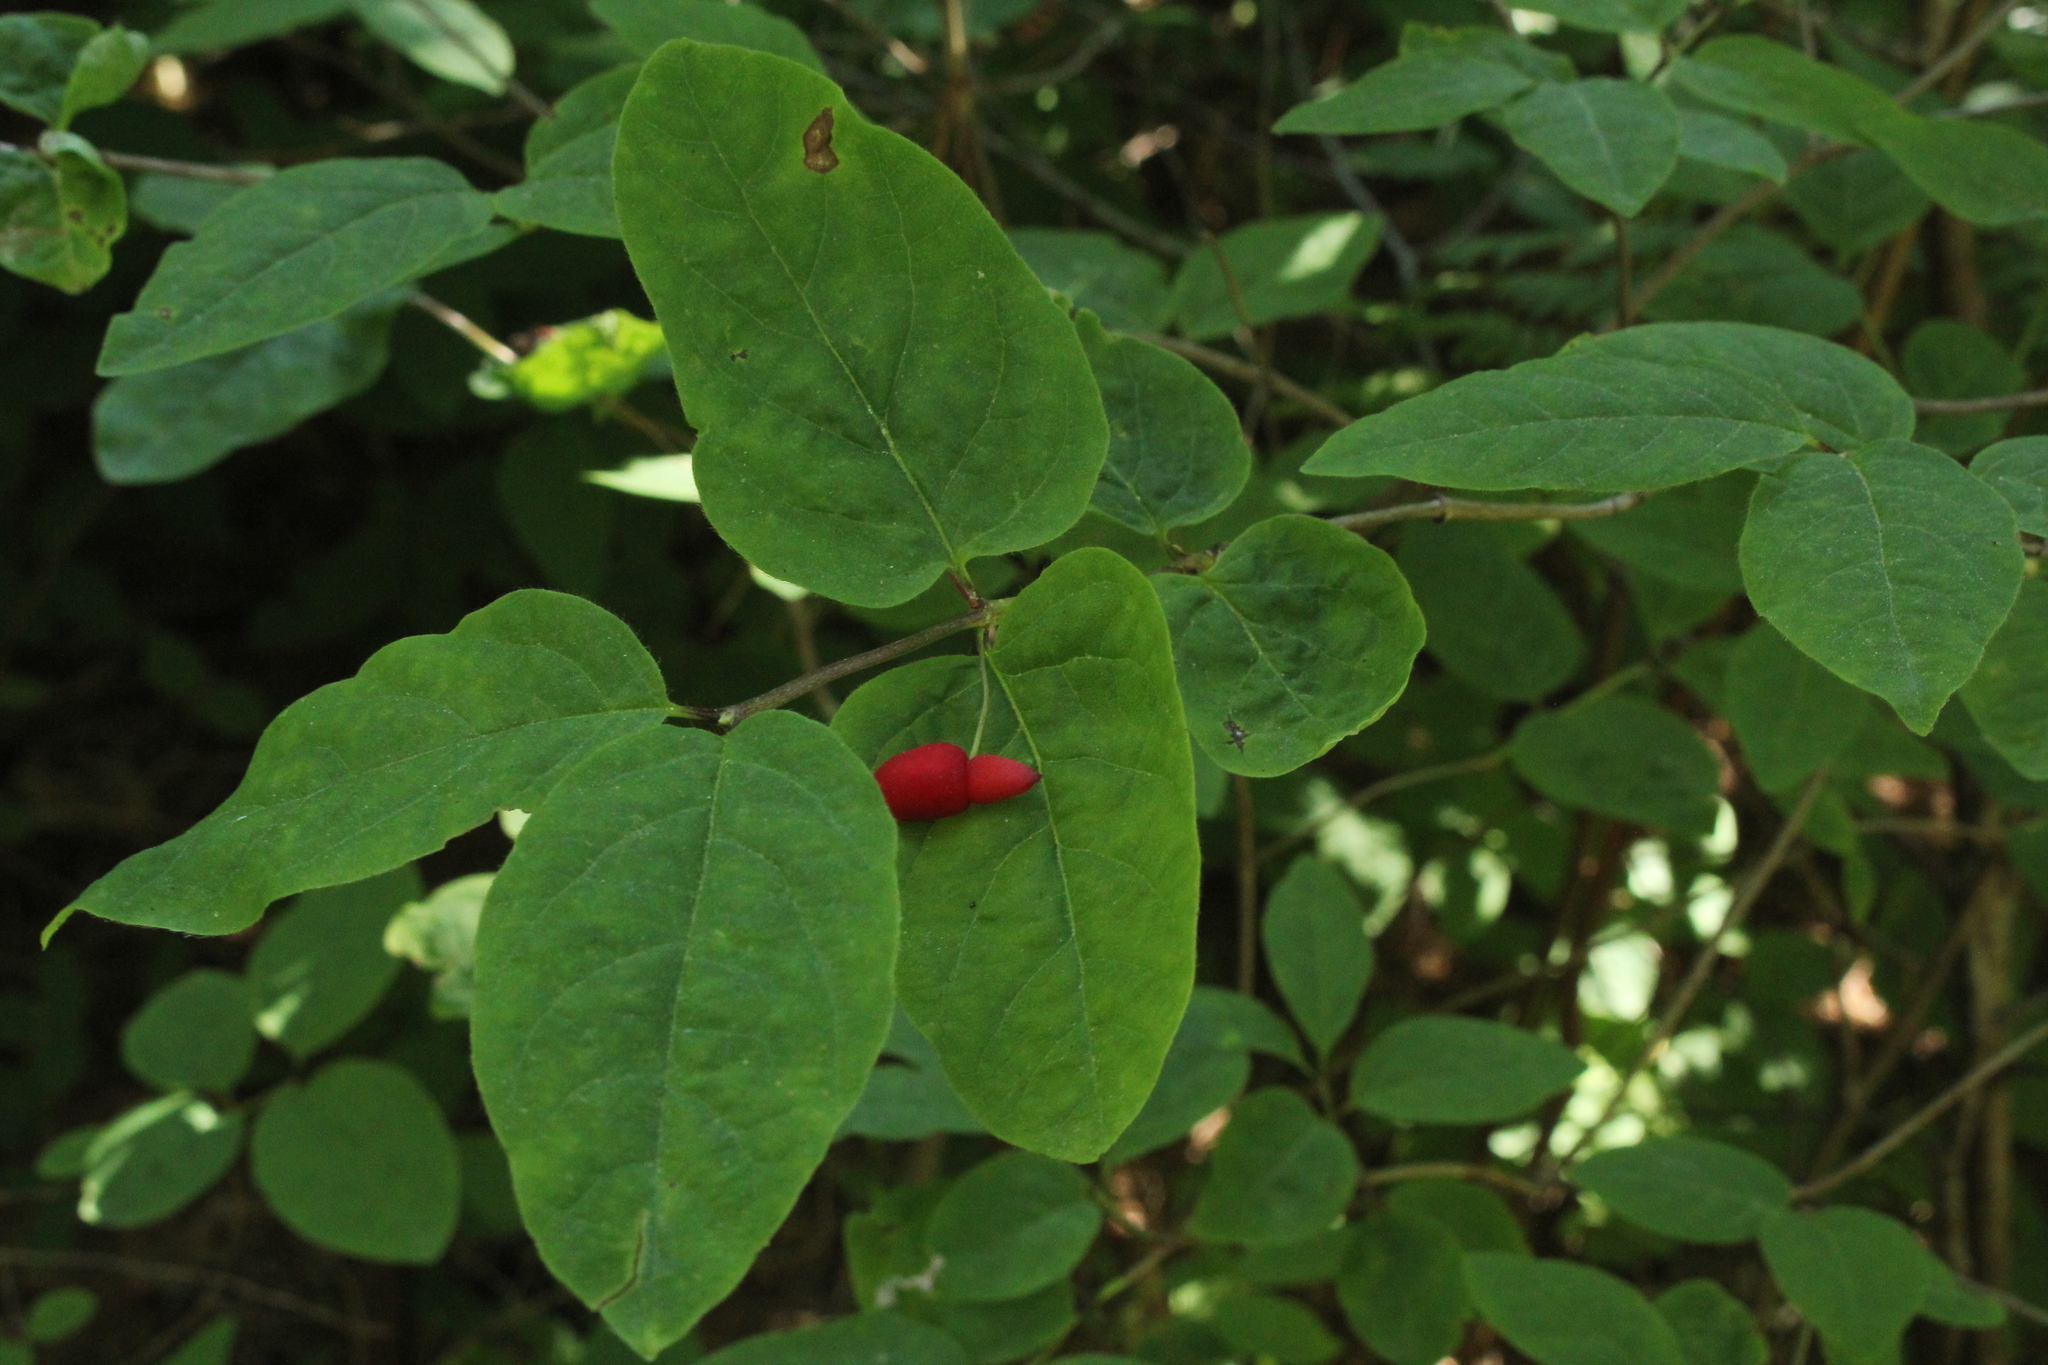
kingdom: Plantae
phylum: Tracheophyta
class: Magnoliopsida
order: Dipsacales
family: Caprifoliaceae
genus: Lonicera
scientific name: Lonicera canadensis
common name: American fly-honeysuckle
